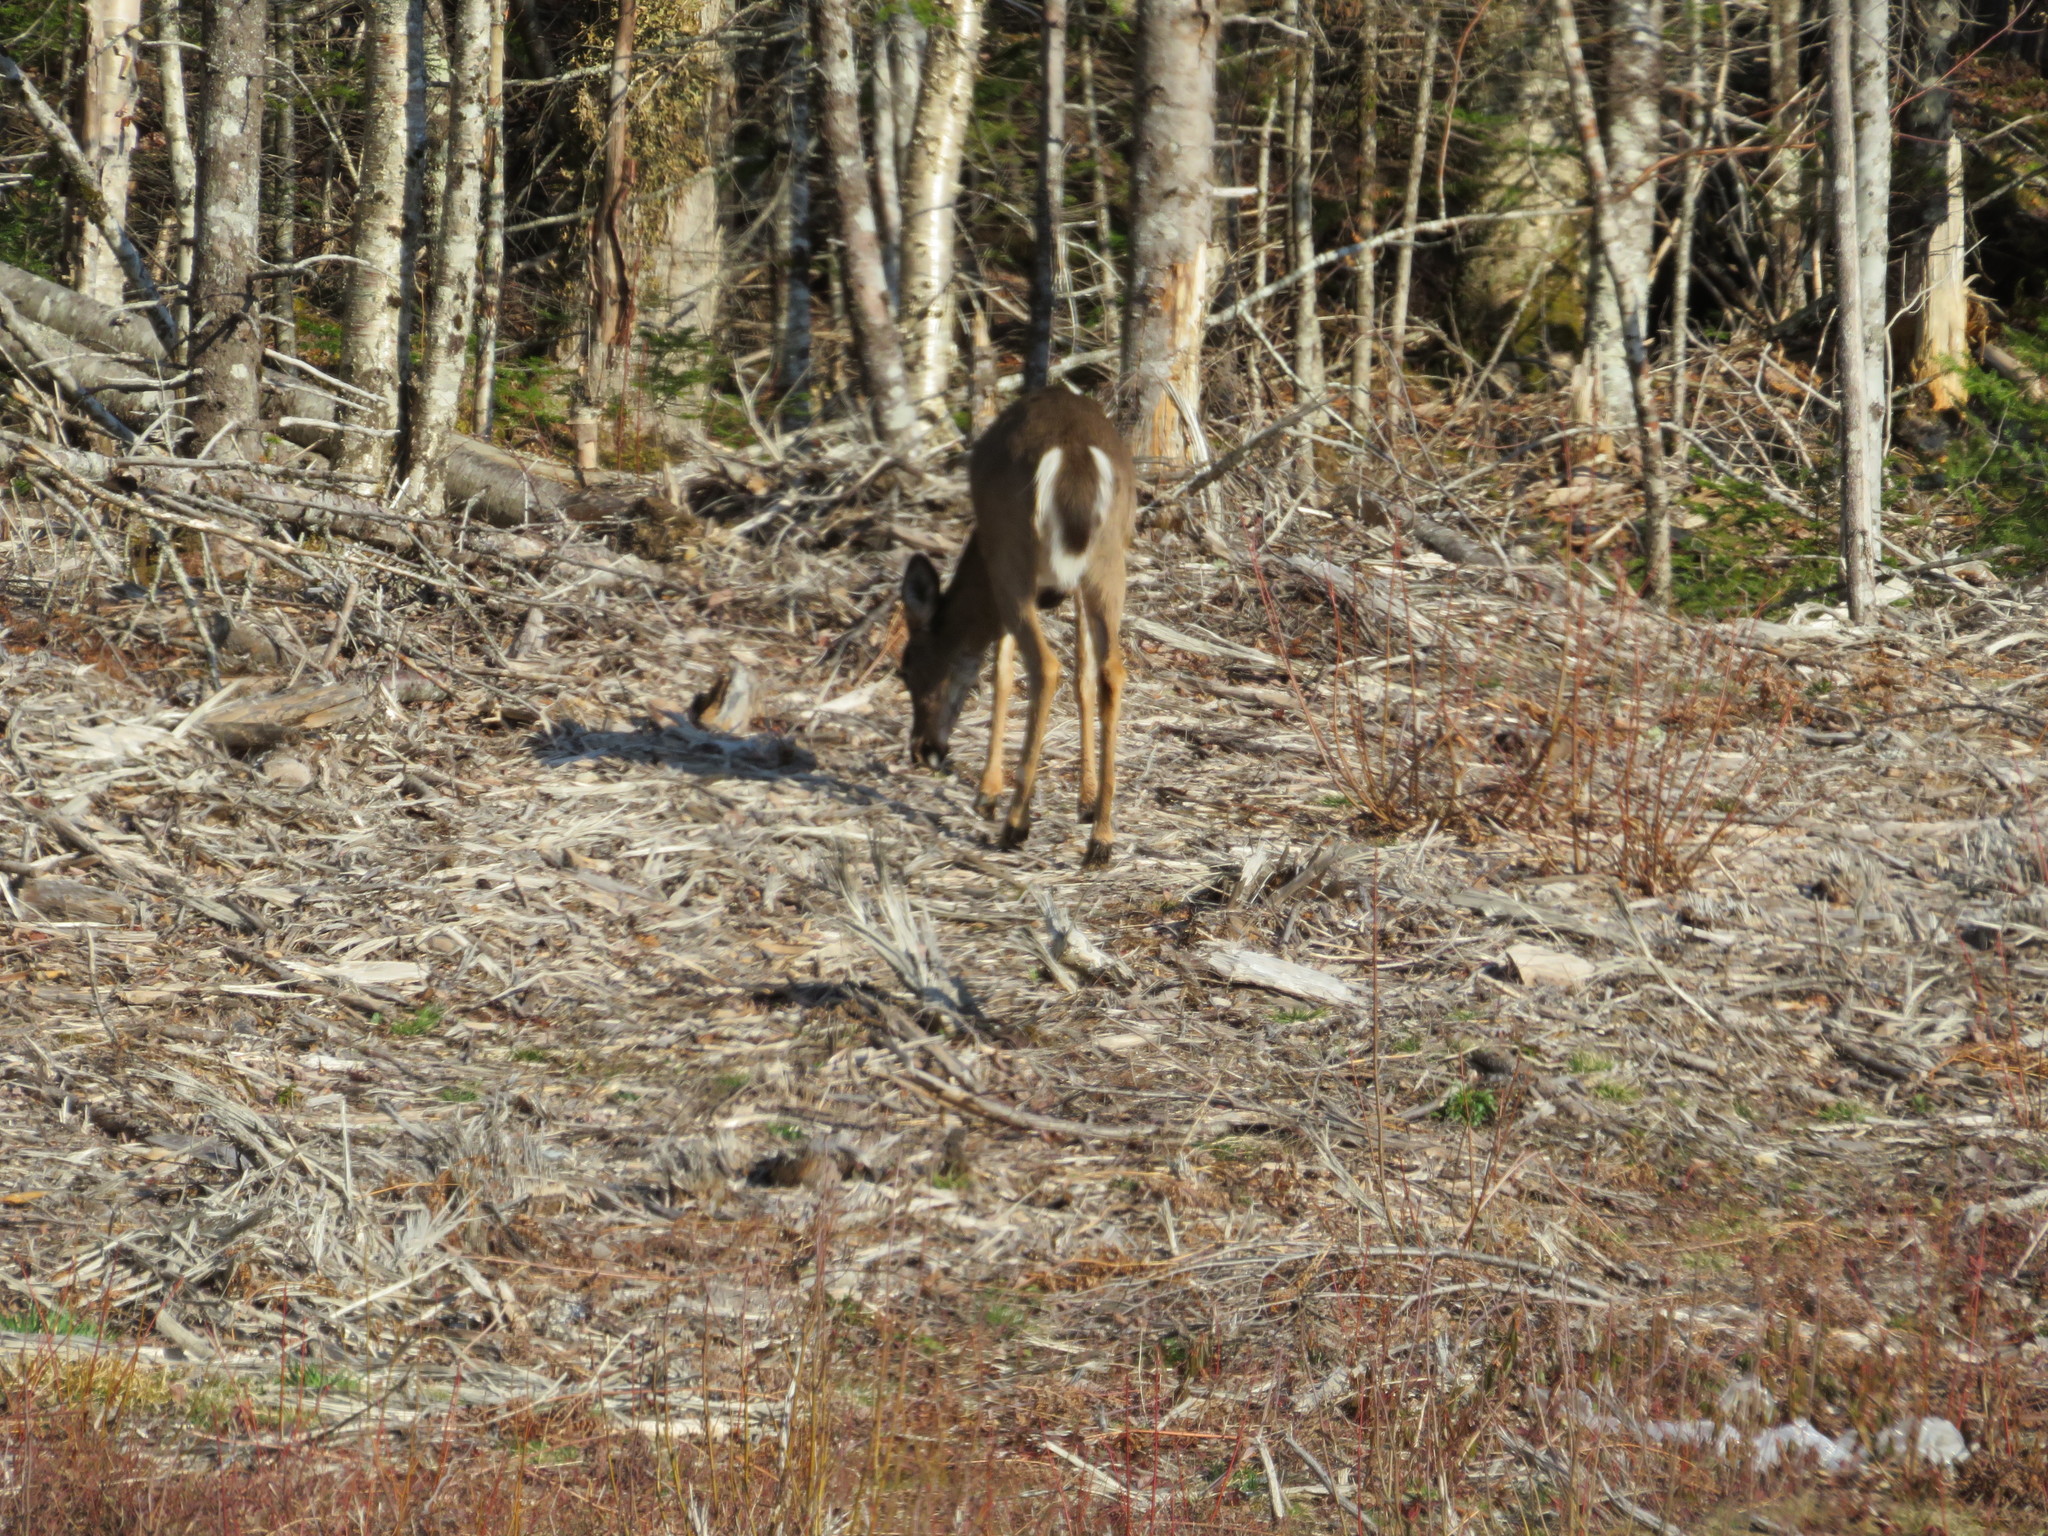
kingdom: Animalia
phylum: Chordata
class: Mammalia
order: Artiodactyla
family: Cervidae
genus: Odocoileus
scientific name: Odocoileus virginianus
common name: White-tailed deer
